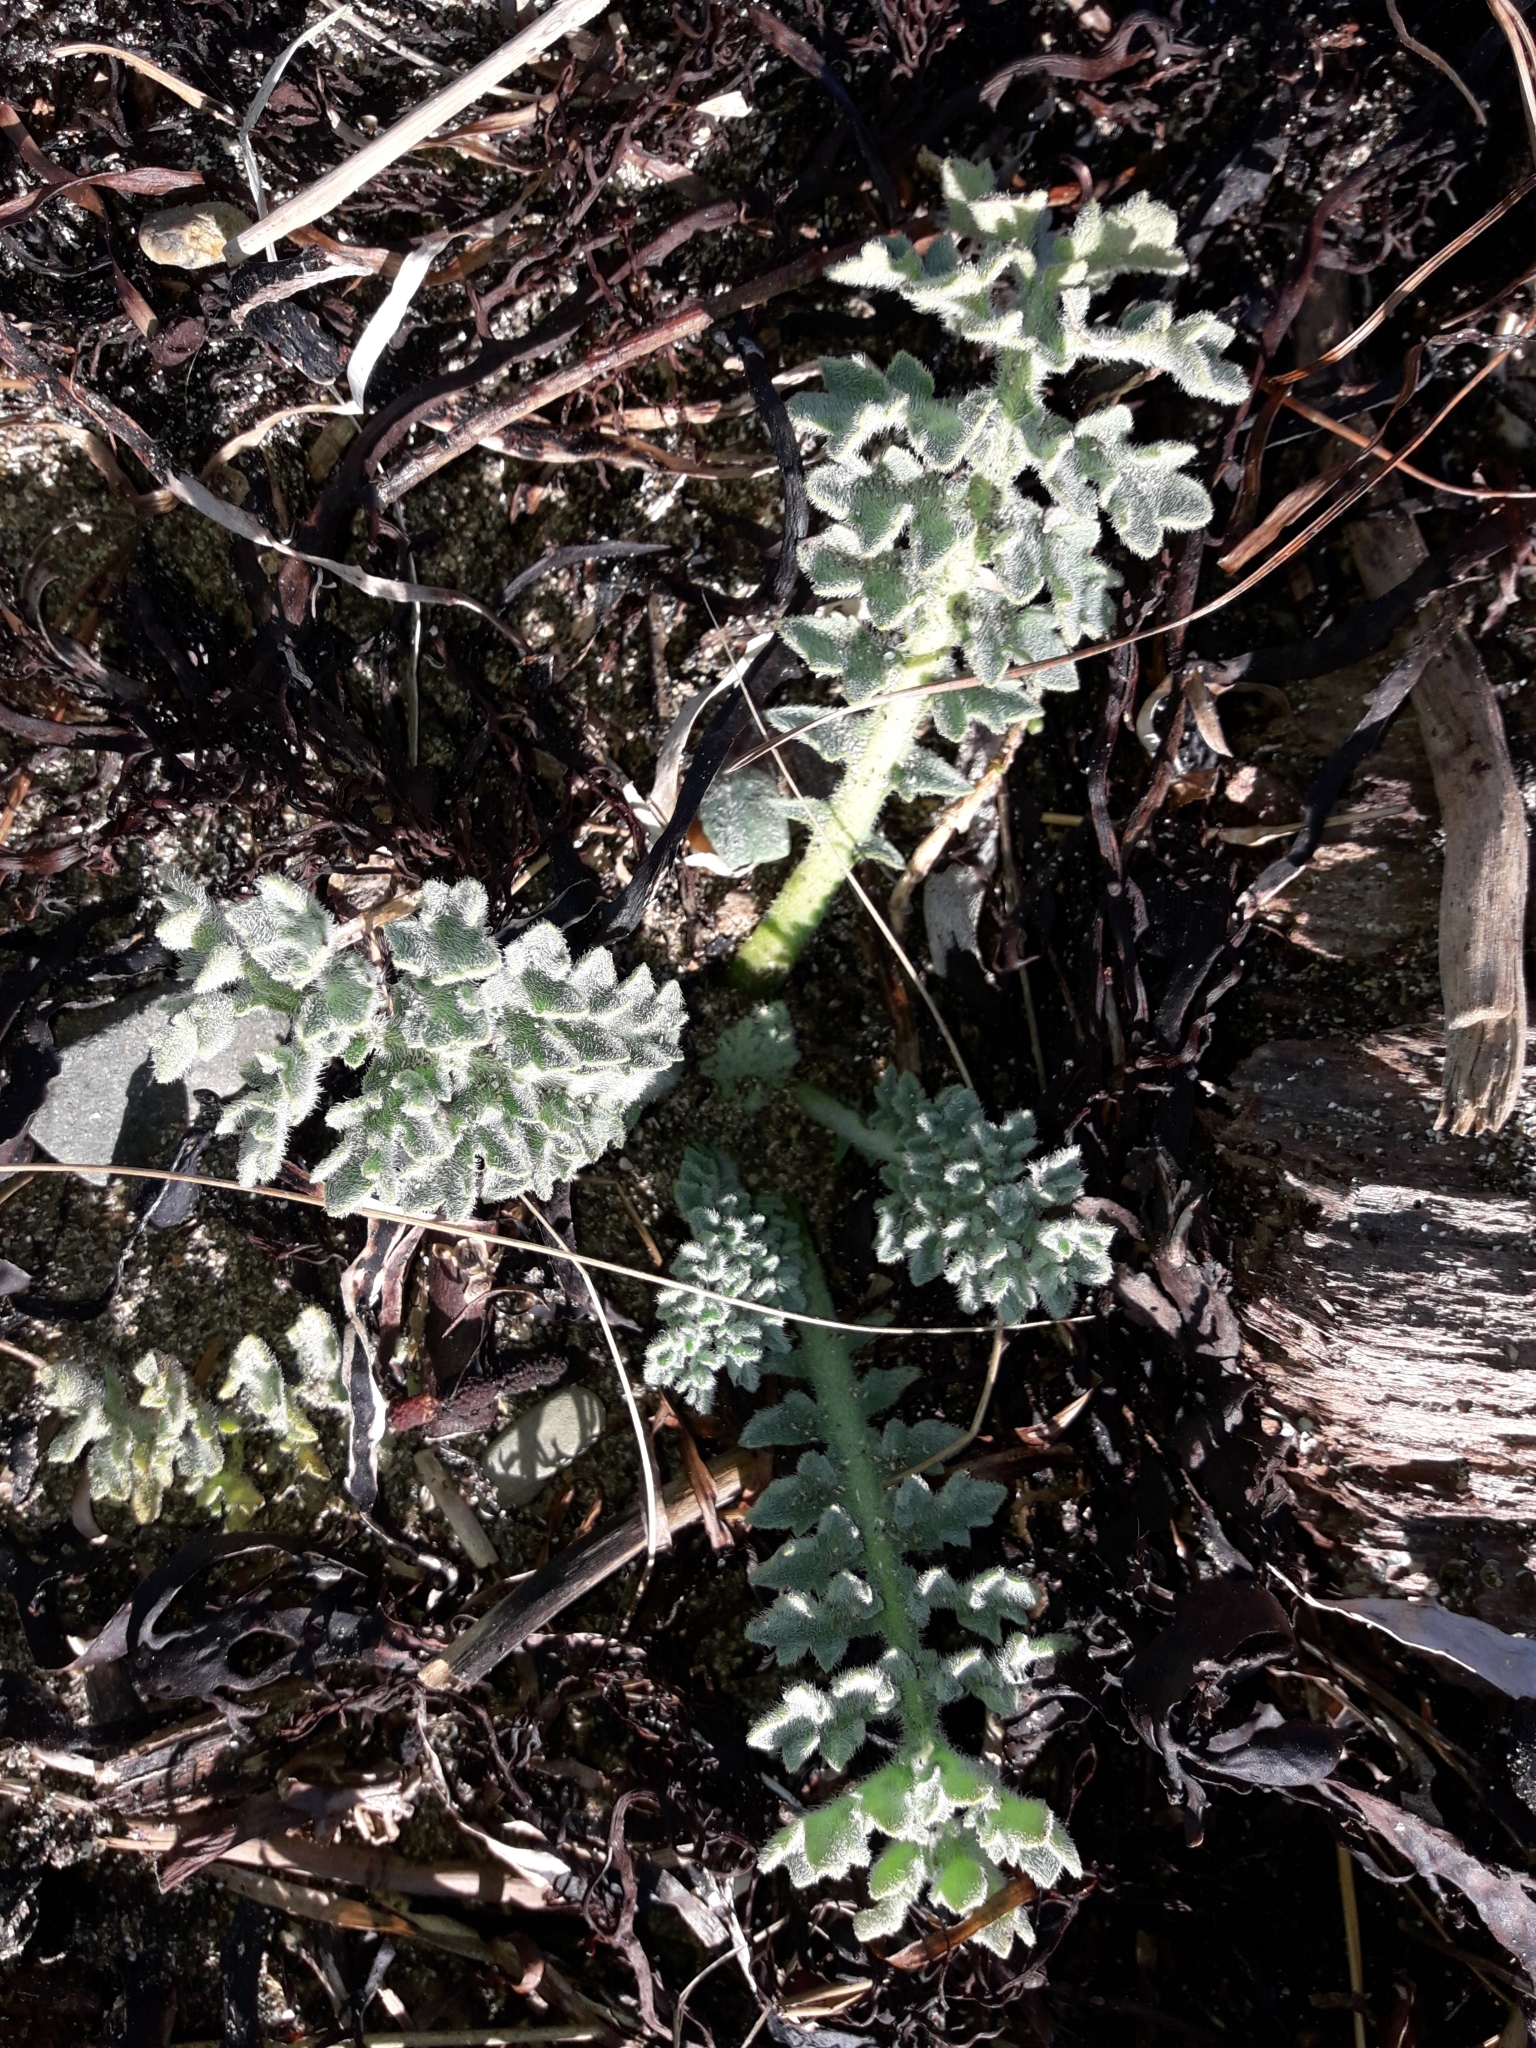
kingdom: Plantae
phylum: Tracheophyta
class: Magnoliopsida
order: Ranunculales
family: Papaveraceae
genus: Glaucium
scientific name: Glaucium flavum
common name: Yellow horned-poppy
